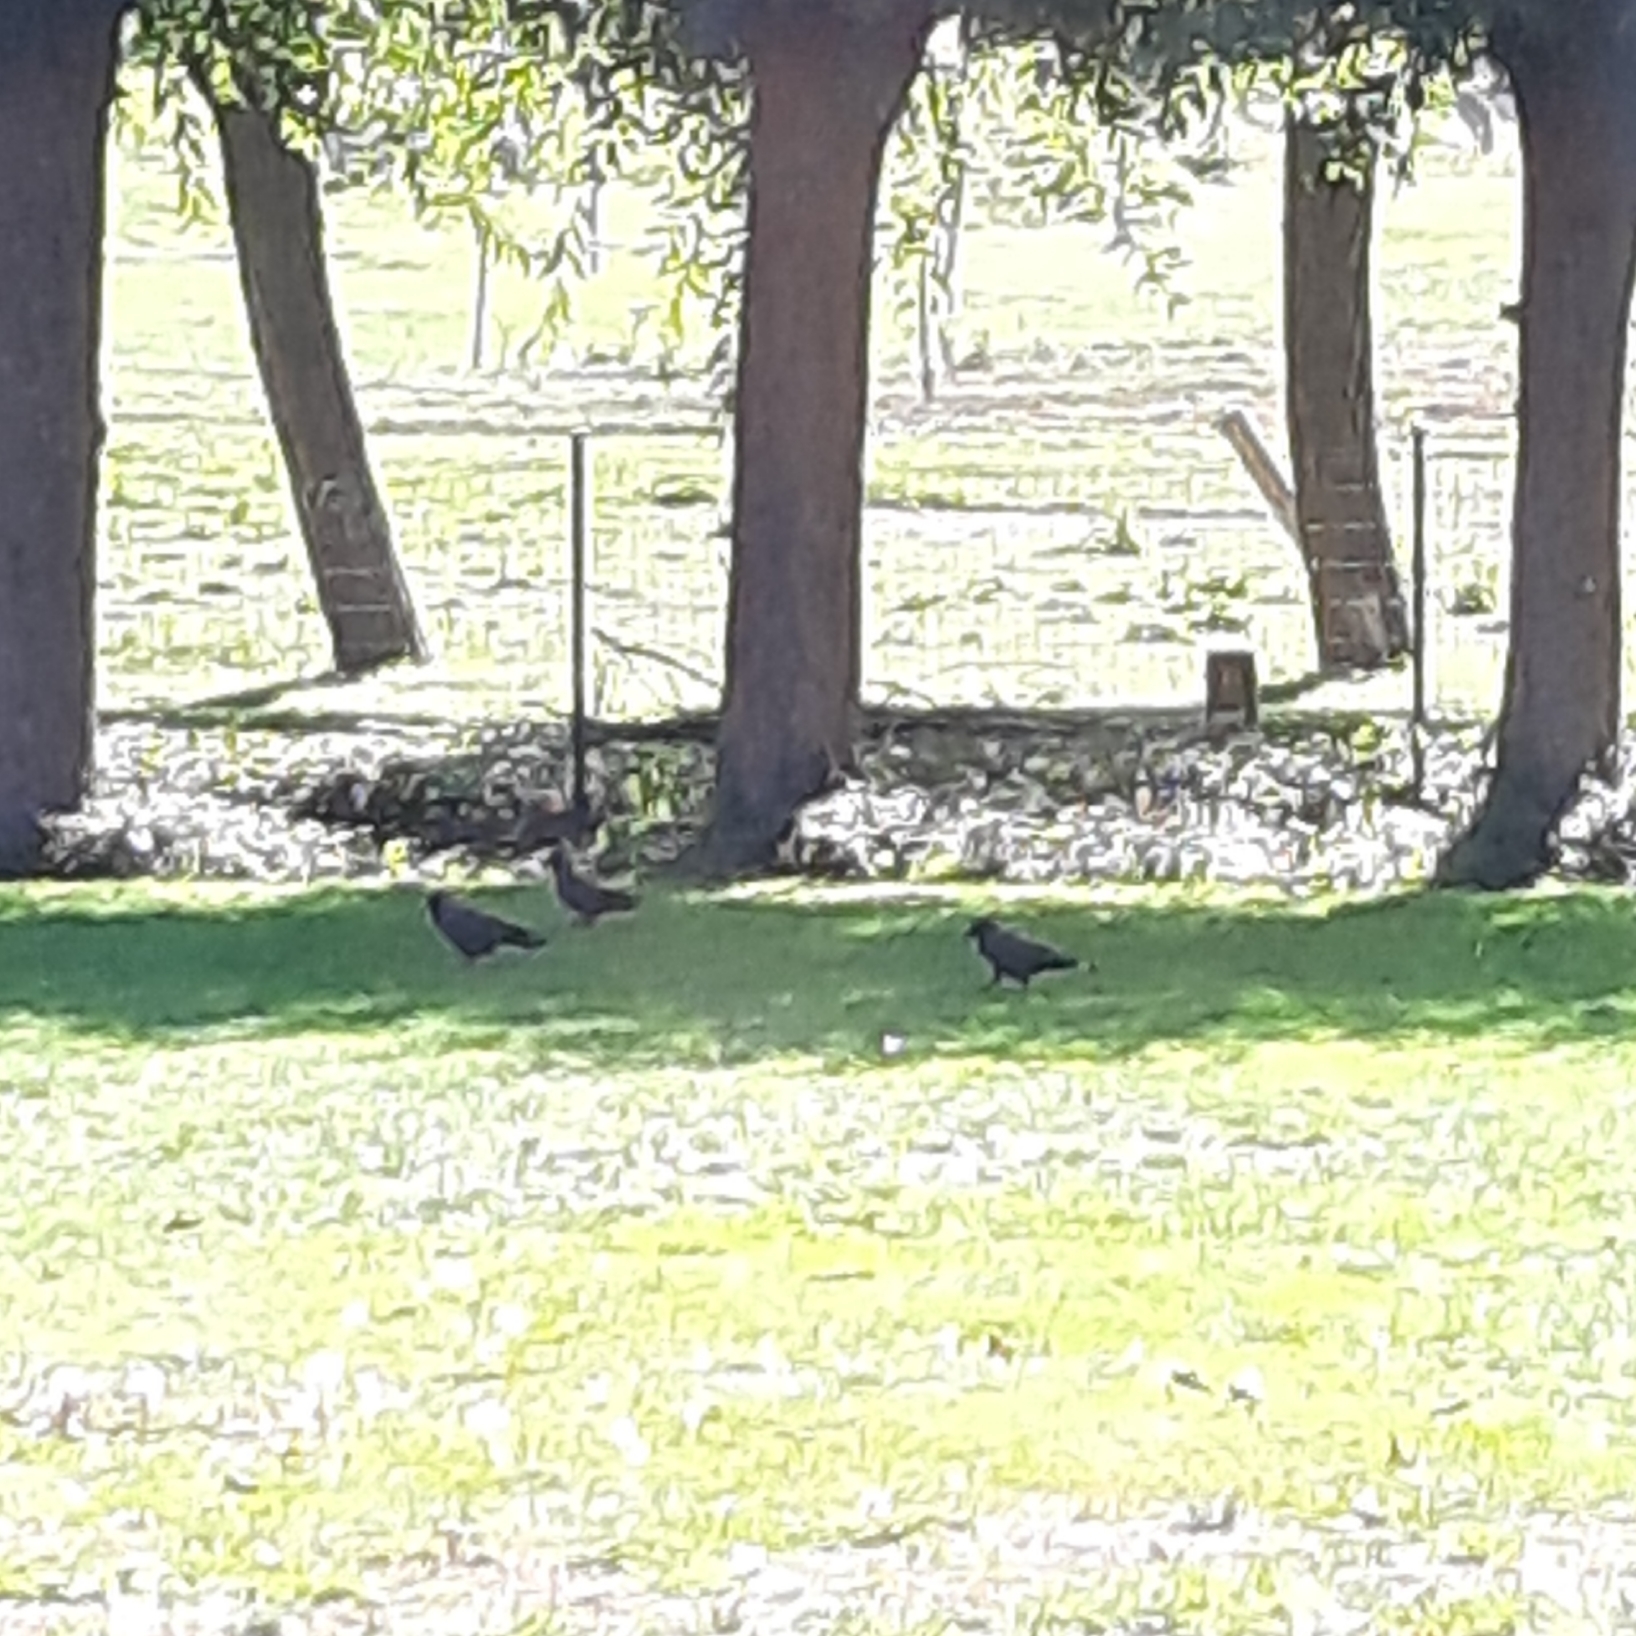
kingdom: Animalia
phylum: Chordata
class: Aves
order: Passeriformes
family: Corvidae
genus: Coloeus
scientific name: Coloeus monedula
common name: Western jackdaw
